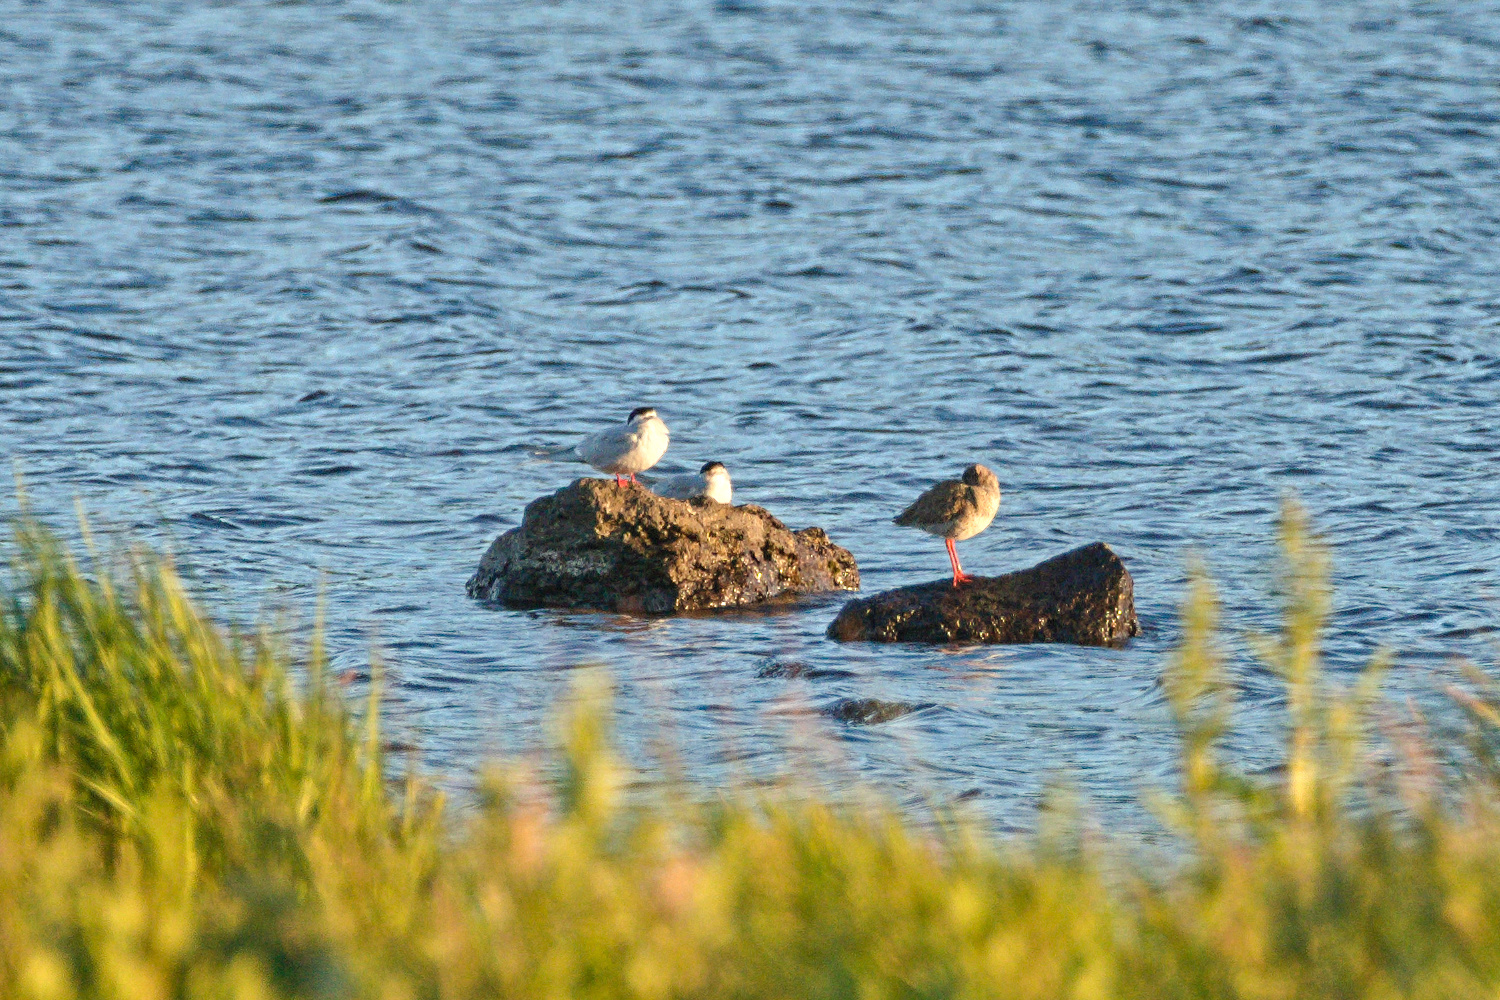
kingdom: Animalia
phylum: Chordata
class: Aves
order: Charadriiformes
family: Laridae
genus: Sterna
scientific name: Sterna paradisaea
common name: Arctic tern
